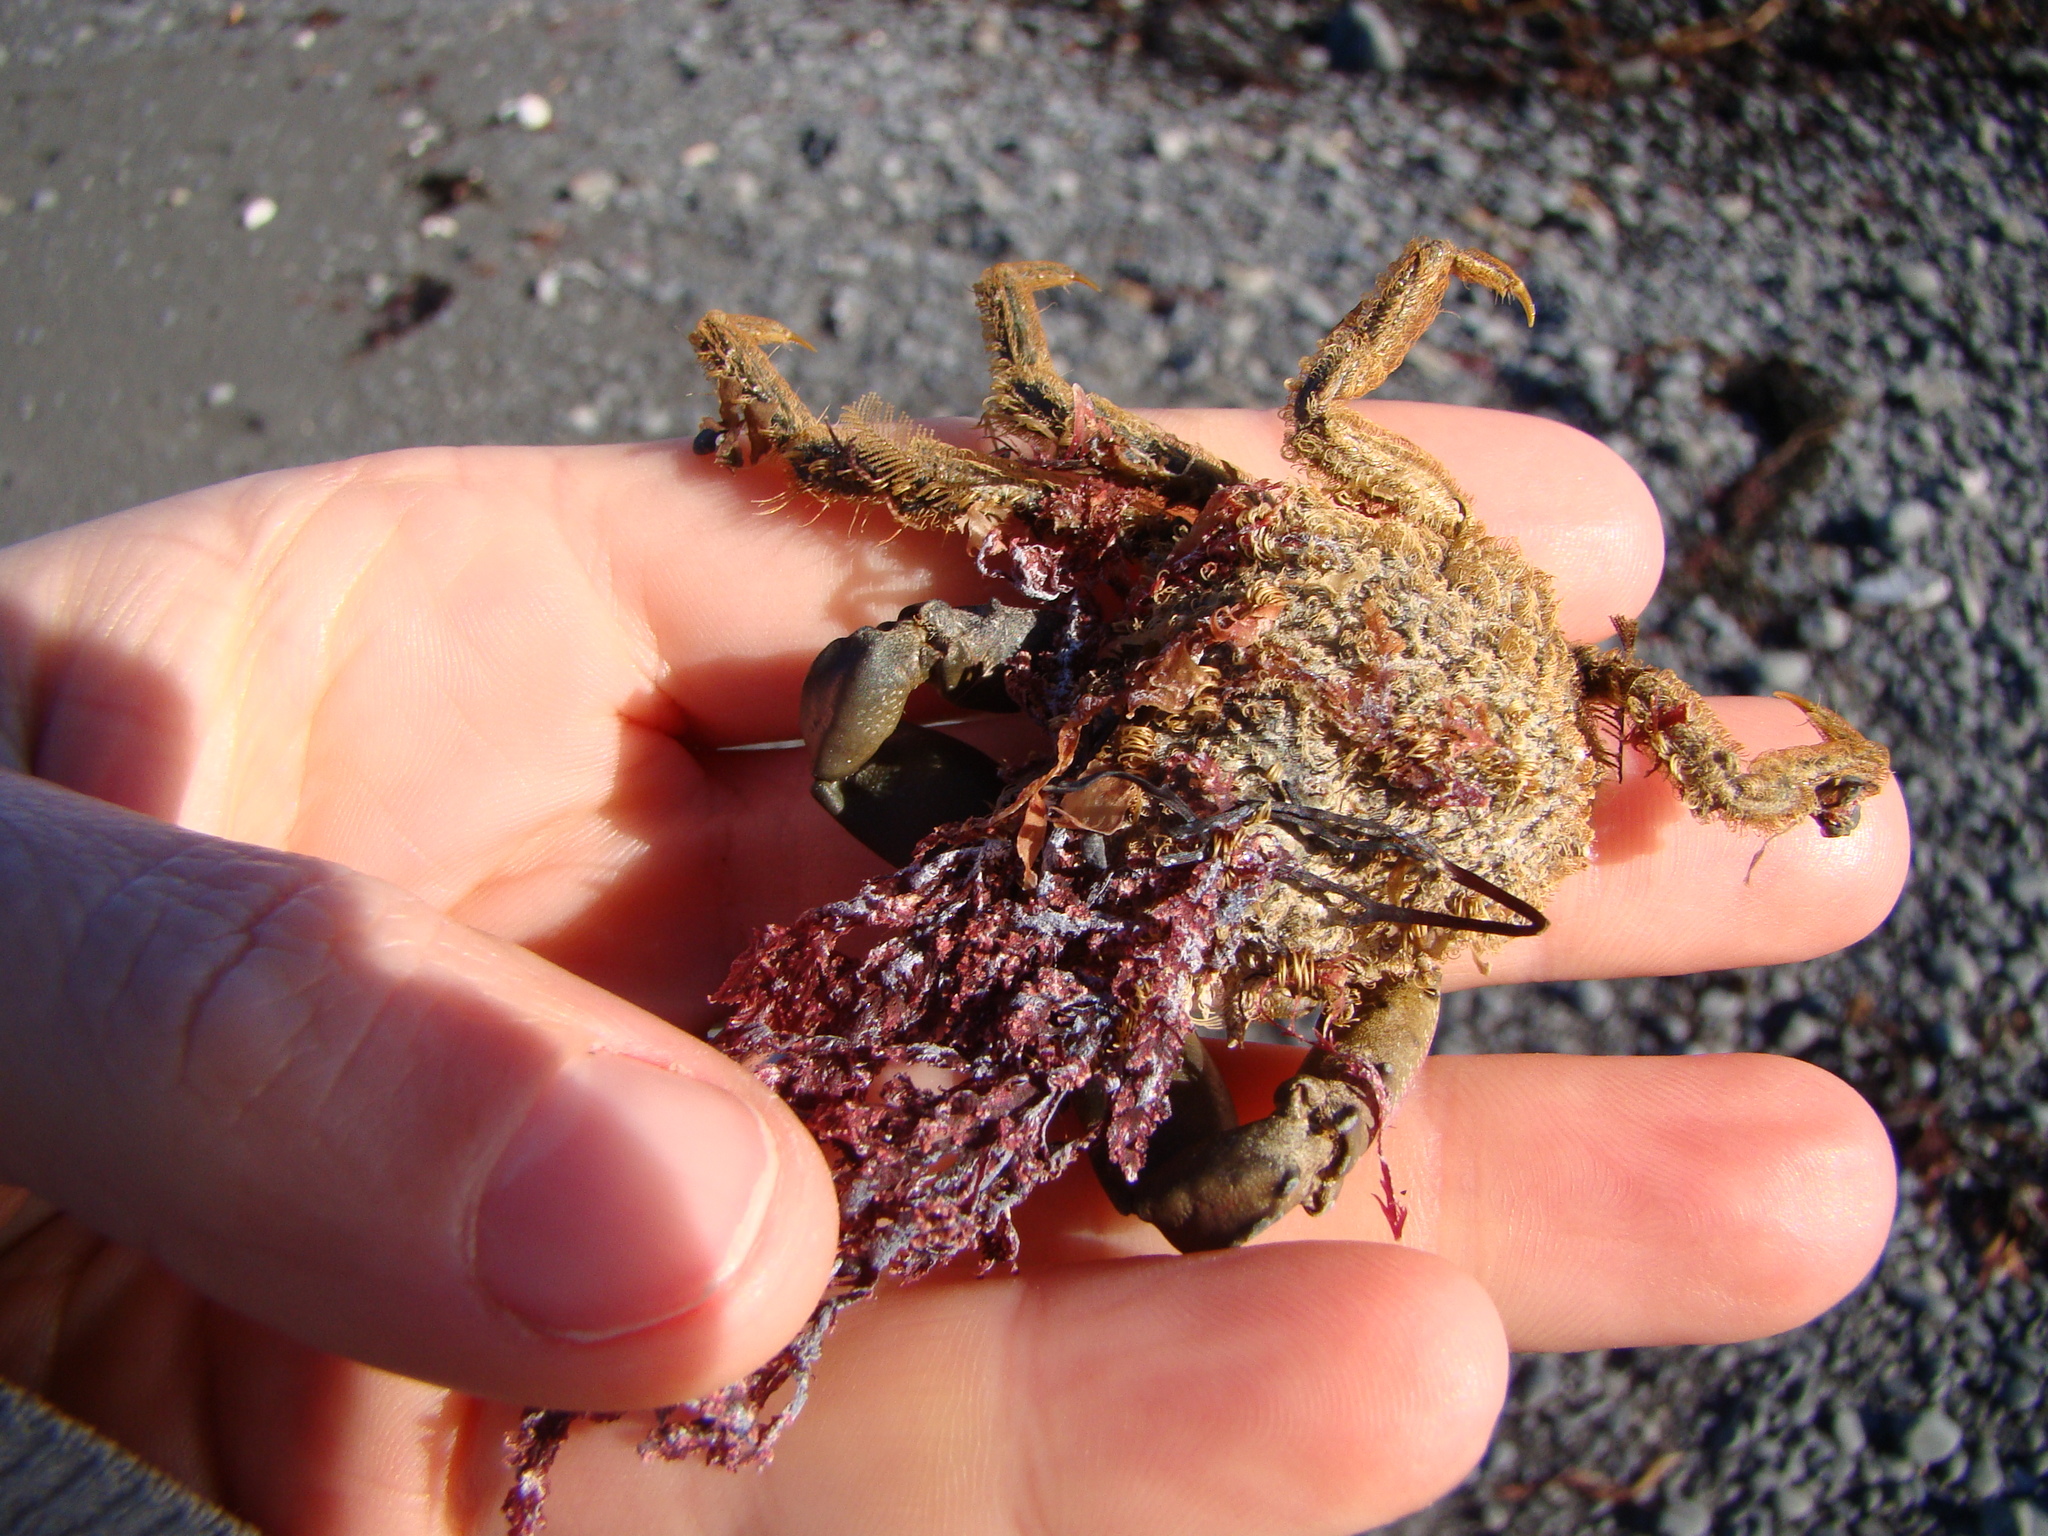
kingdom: Animalia
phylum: Arthropoda
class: Malacostraca
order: Decapoda
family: Majidae
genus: Notomithrax
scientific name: Notomithrax peronii
